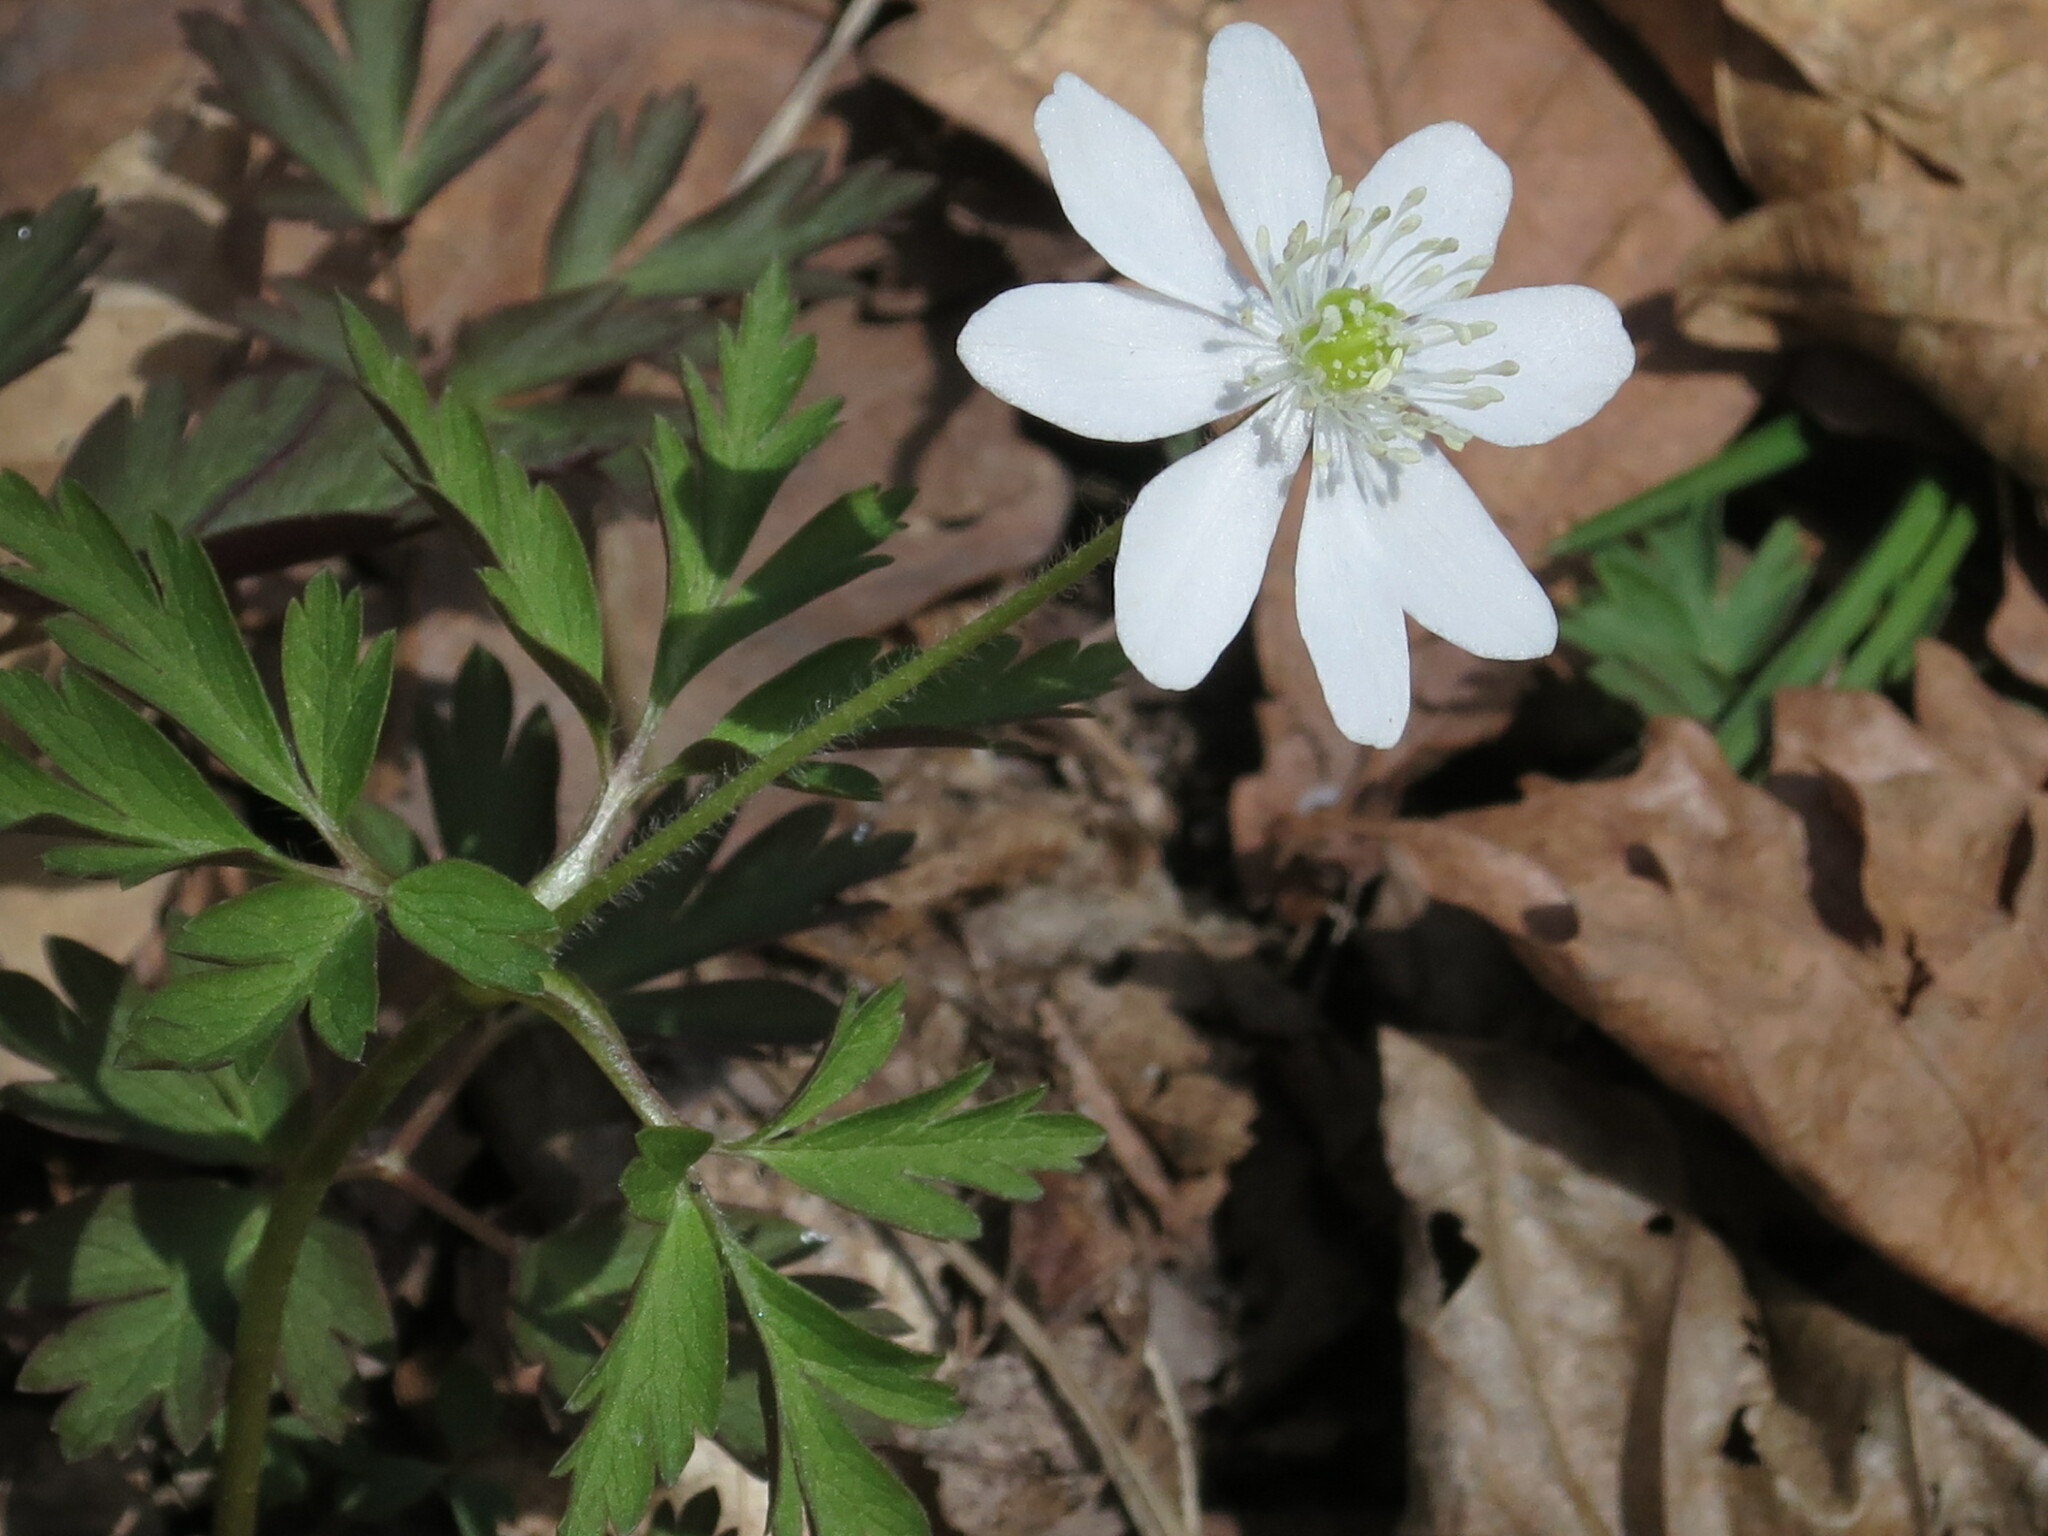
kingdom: Plantae
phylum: Tracheophyta
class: Magnoliopsida
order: Ranunculales
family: Ranunculaceae
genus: Anemone
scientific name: Anemone amurensis
